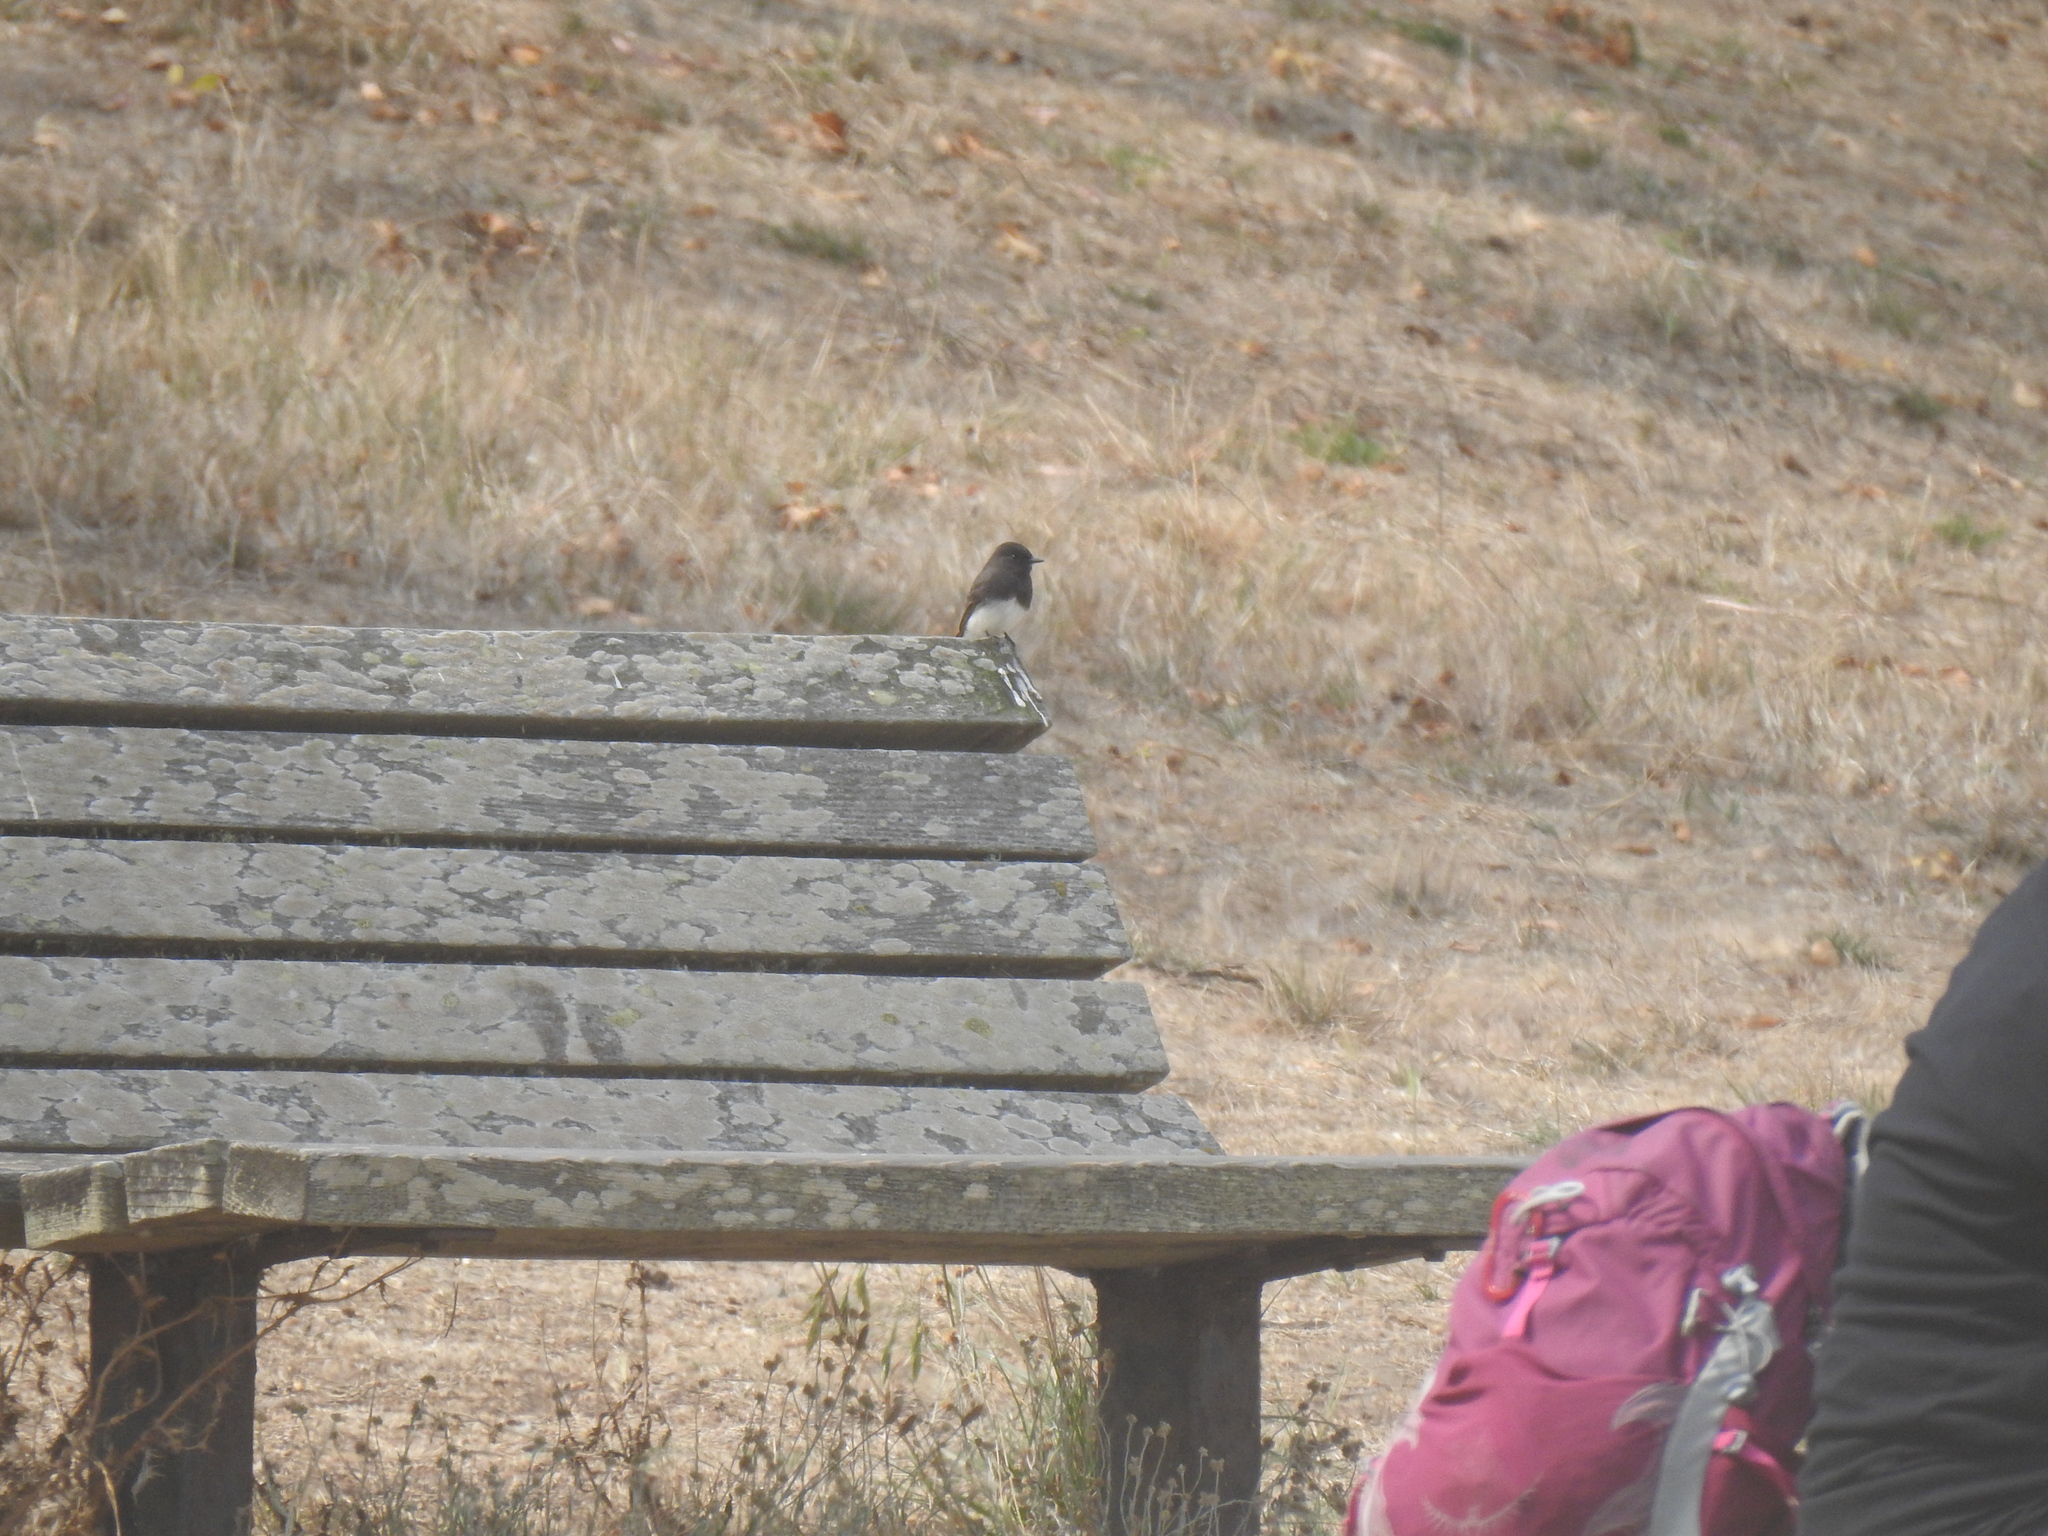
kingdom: Animalia
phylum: Chordata
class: Aves
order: Passeriformes
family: Tyrannidae
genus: Sayornis
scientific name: Sayornis nigricans
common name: Black phoebe
